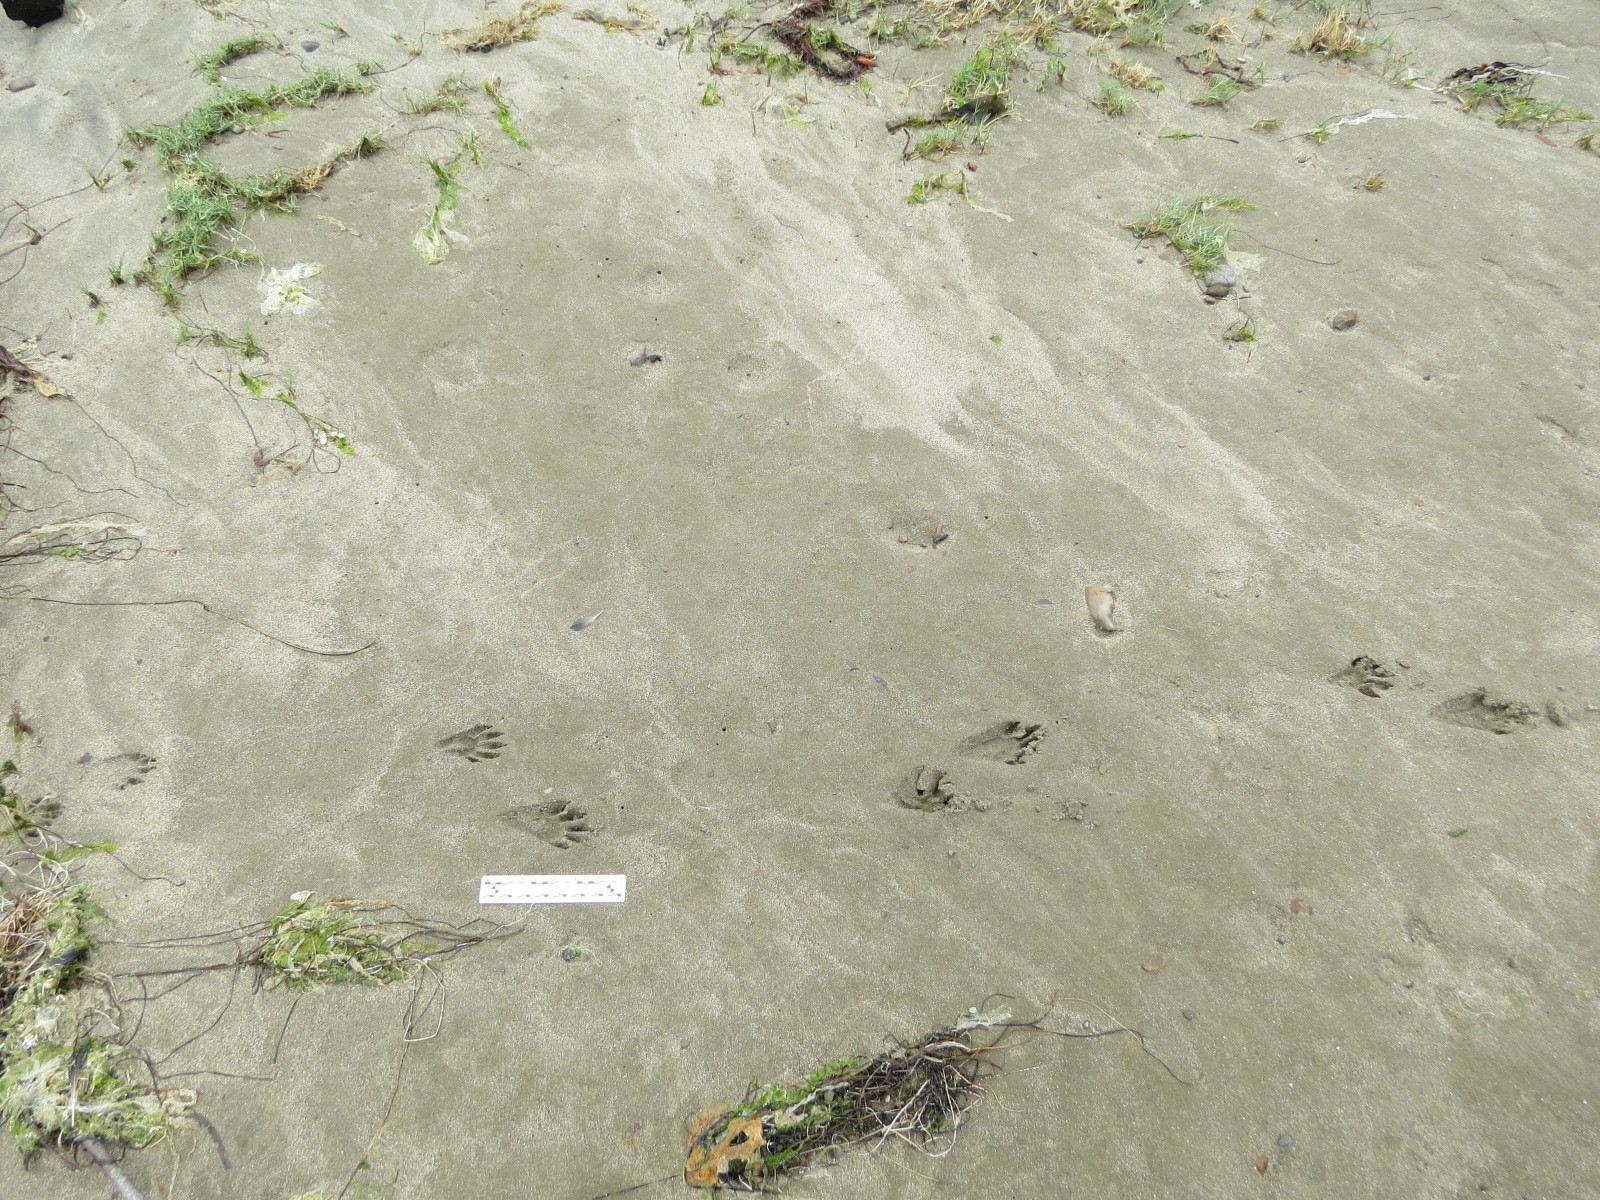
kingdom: Animalia
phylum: Chordata
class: Mammalia
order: Carnivora
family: Procyonidae
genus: Procyon
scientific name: Procyon lotor
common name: Raccoon
